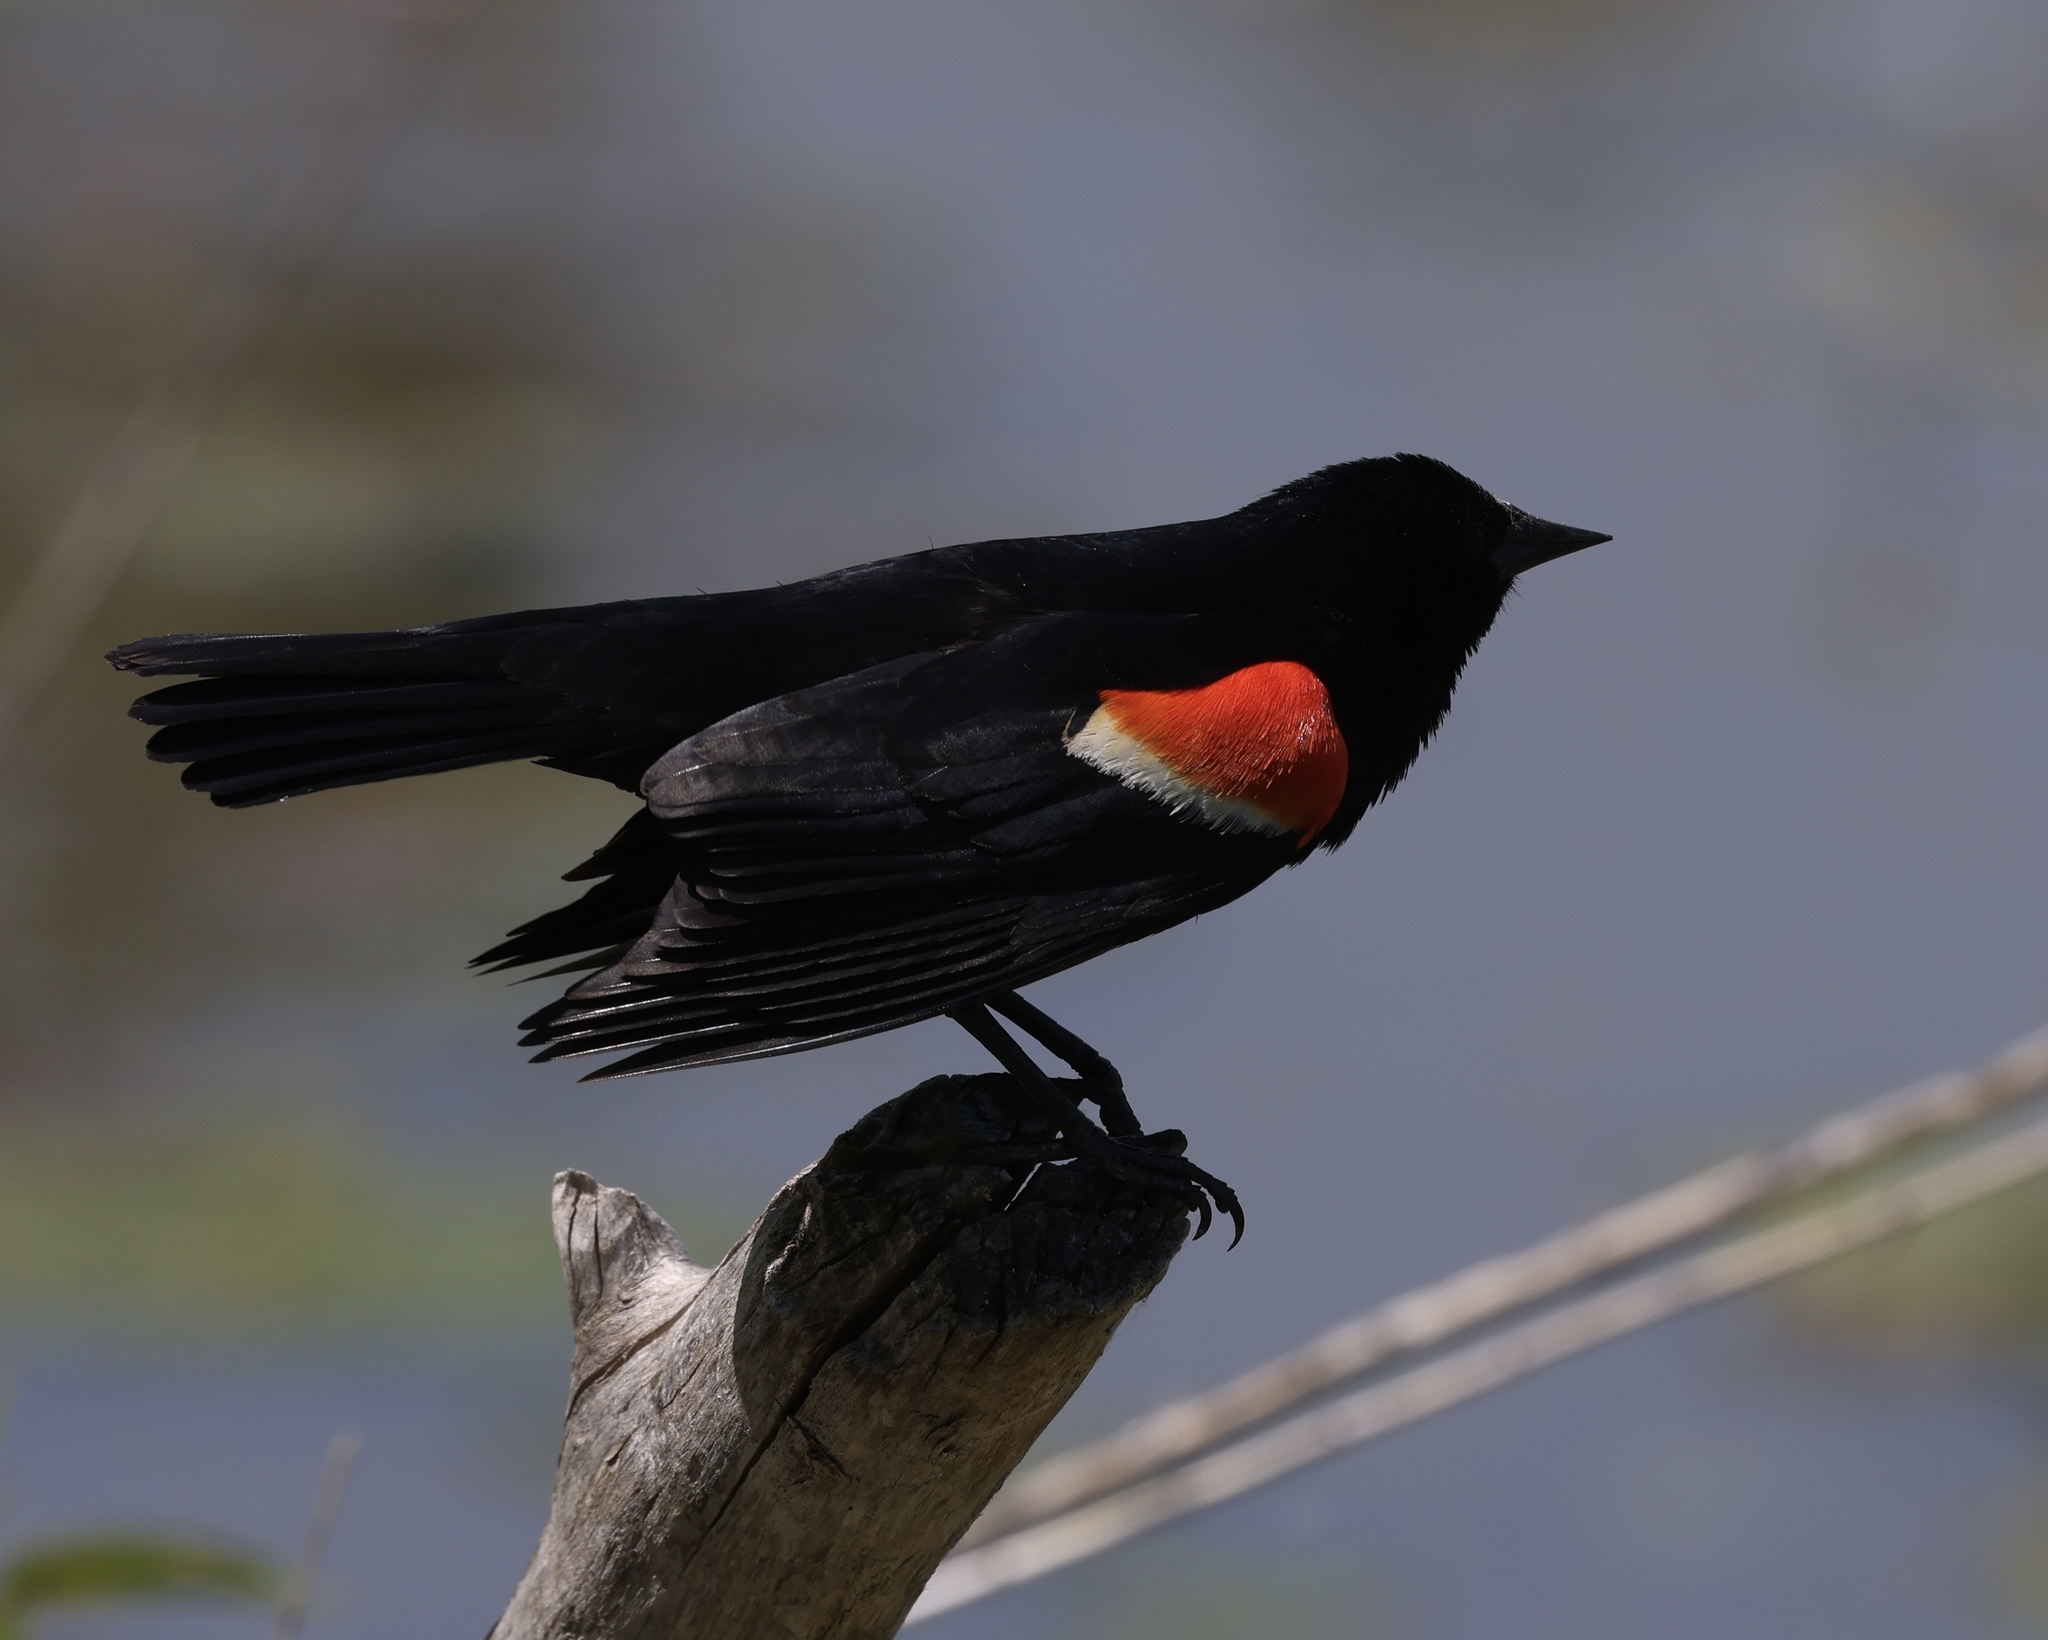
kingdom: Animalia
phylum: Chordata
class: Aves
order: Passeriformes
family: Icteridae
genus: Agelaius
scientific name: Agelaius phoeniceus
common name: Red-winged blackbird
